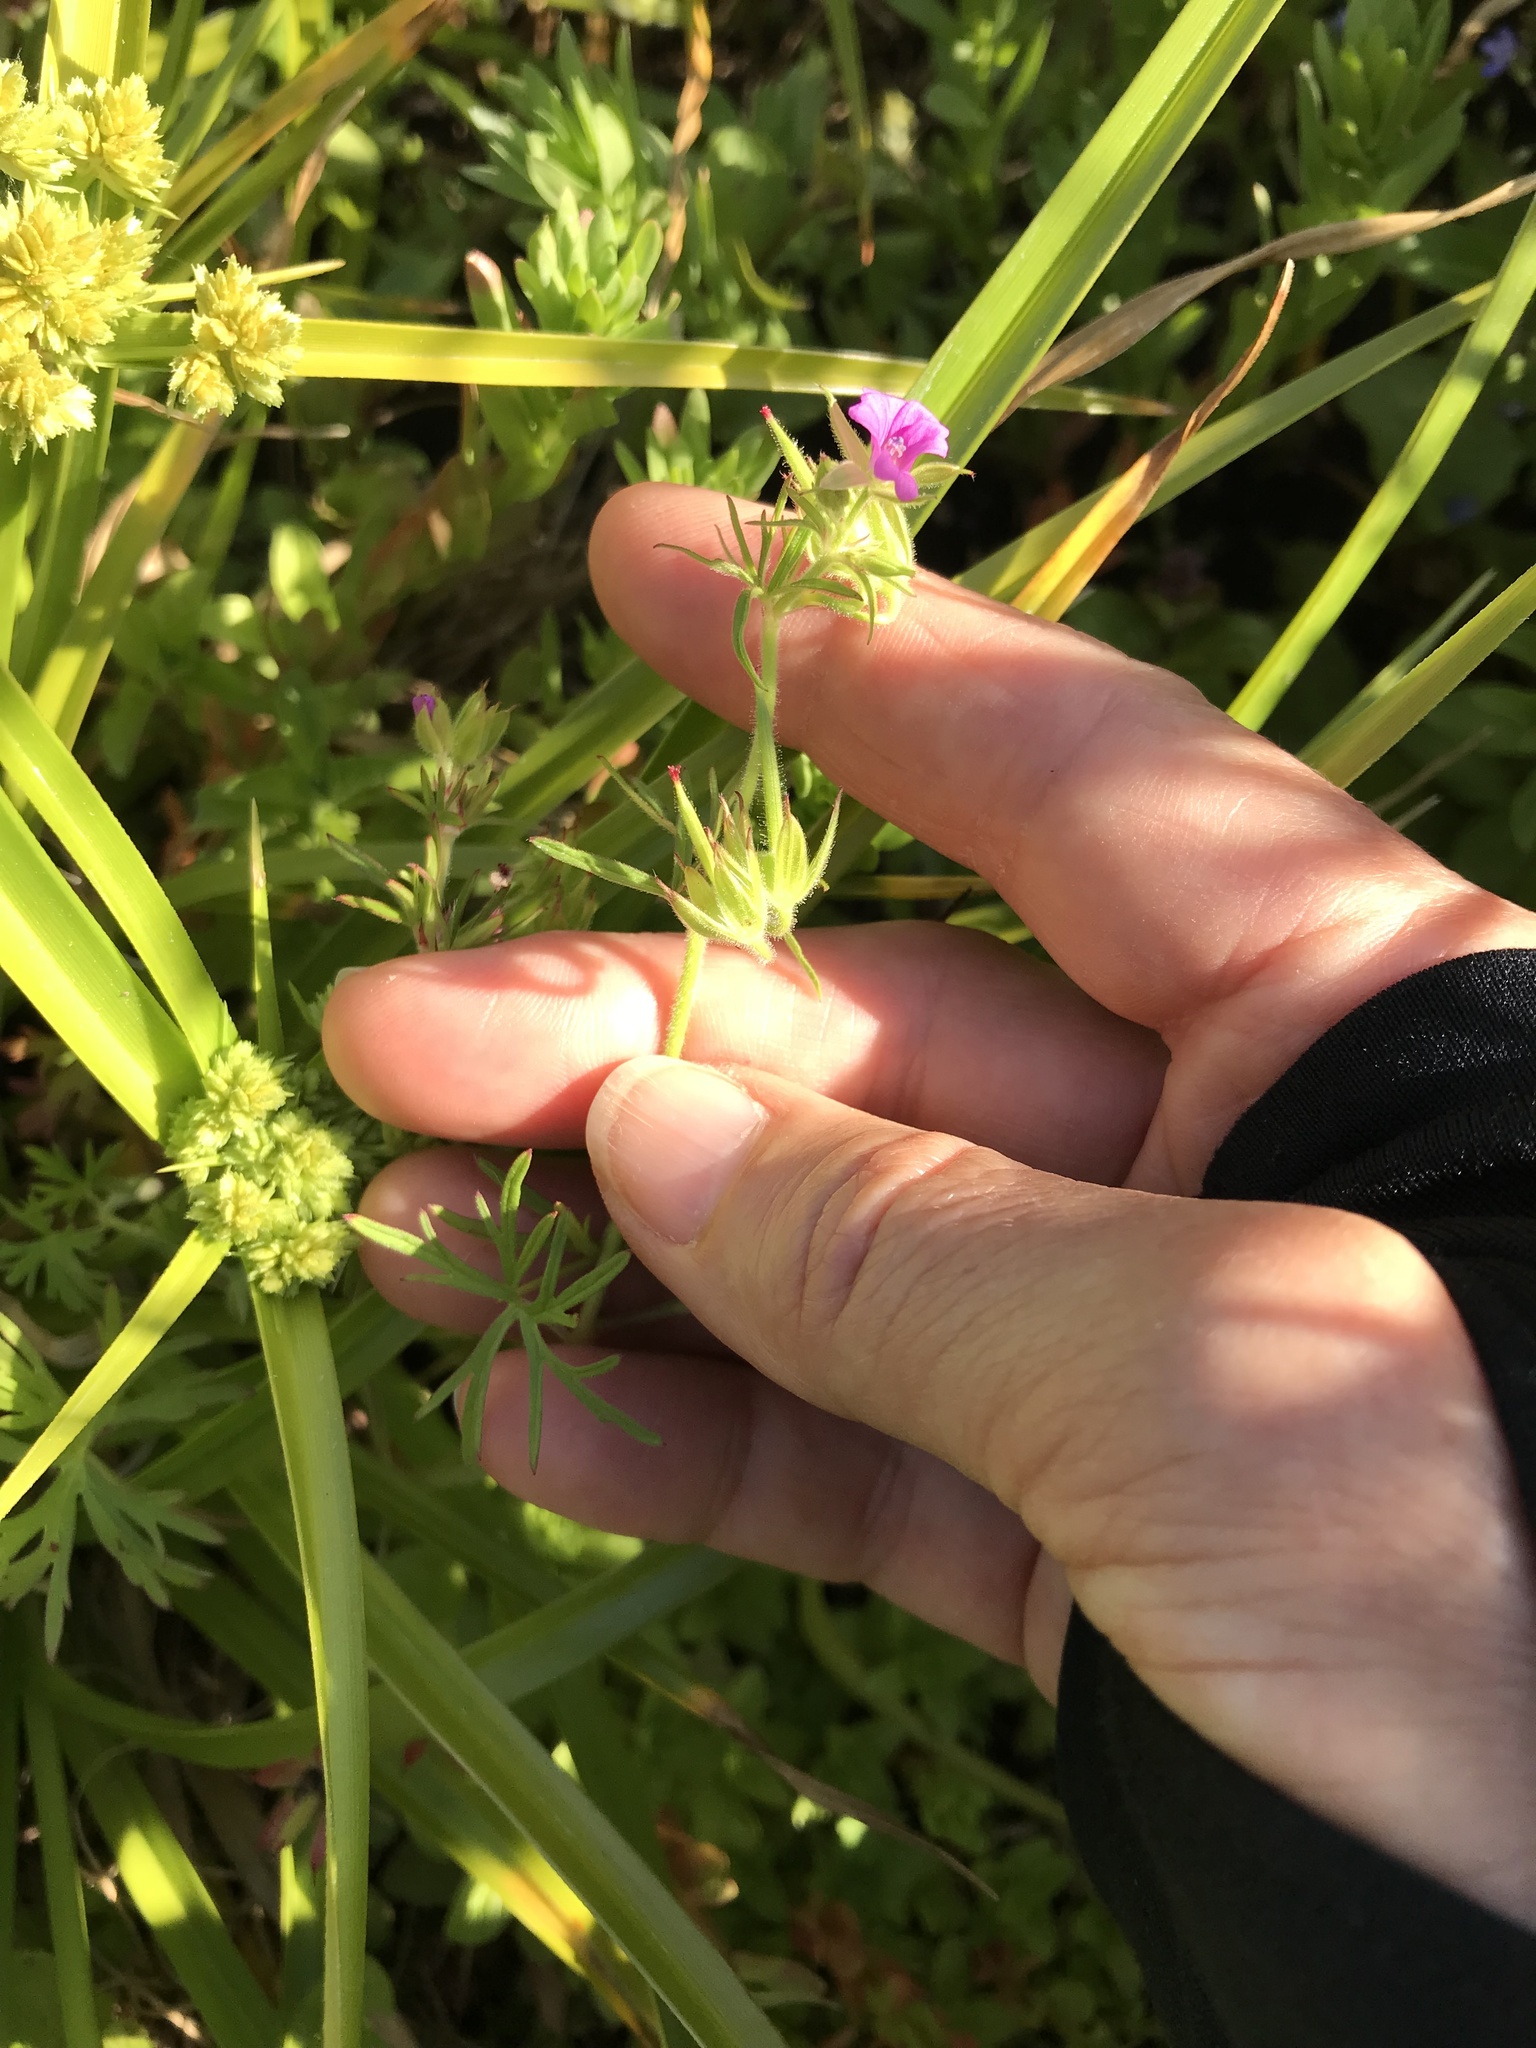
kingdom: Plantae
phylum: Tracheophyta
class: Magnoliopsida
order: Geraniales
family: Geraniaceae
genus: Geranium
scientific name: Geranium dissectum
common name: Cut-leaved crane's-bill
